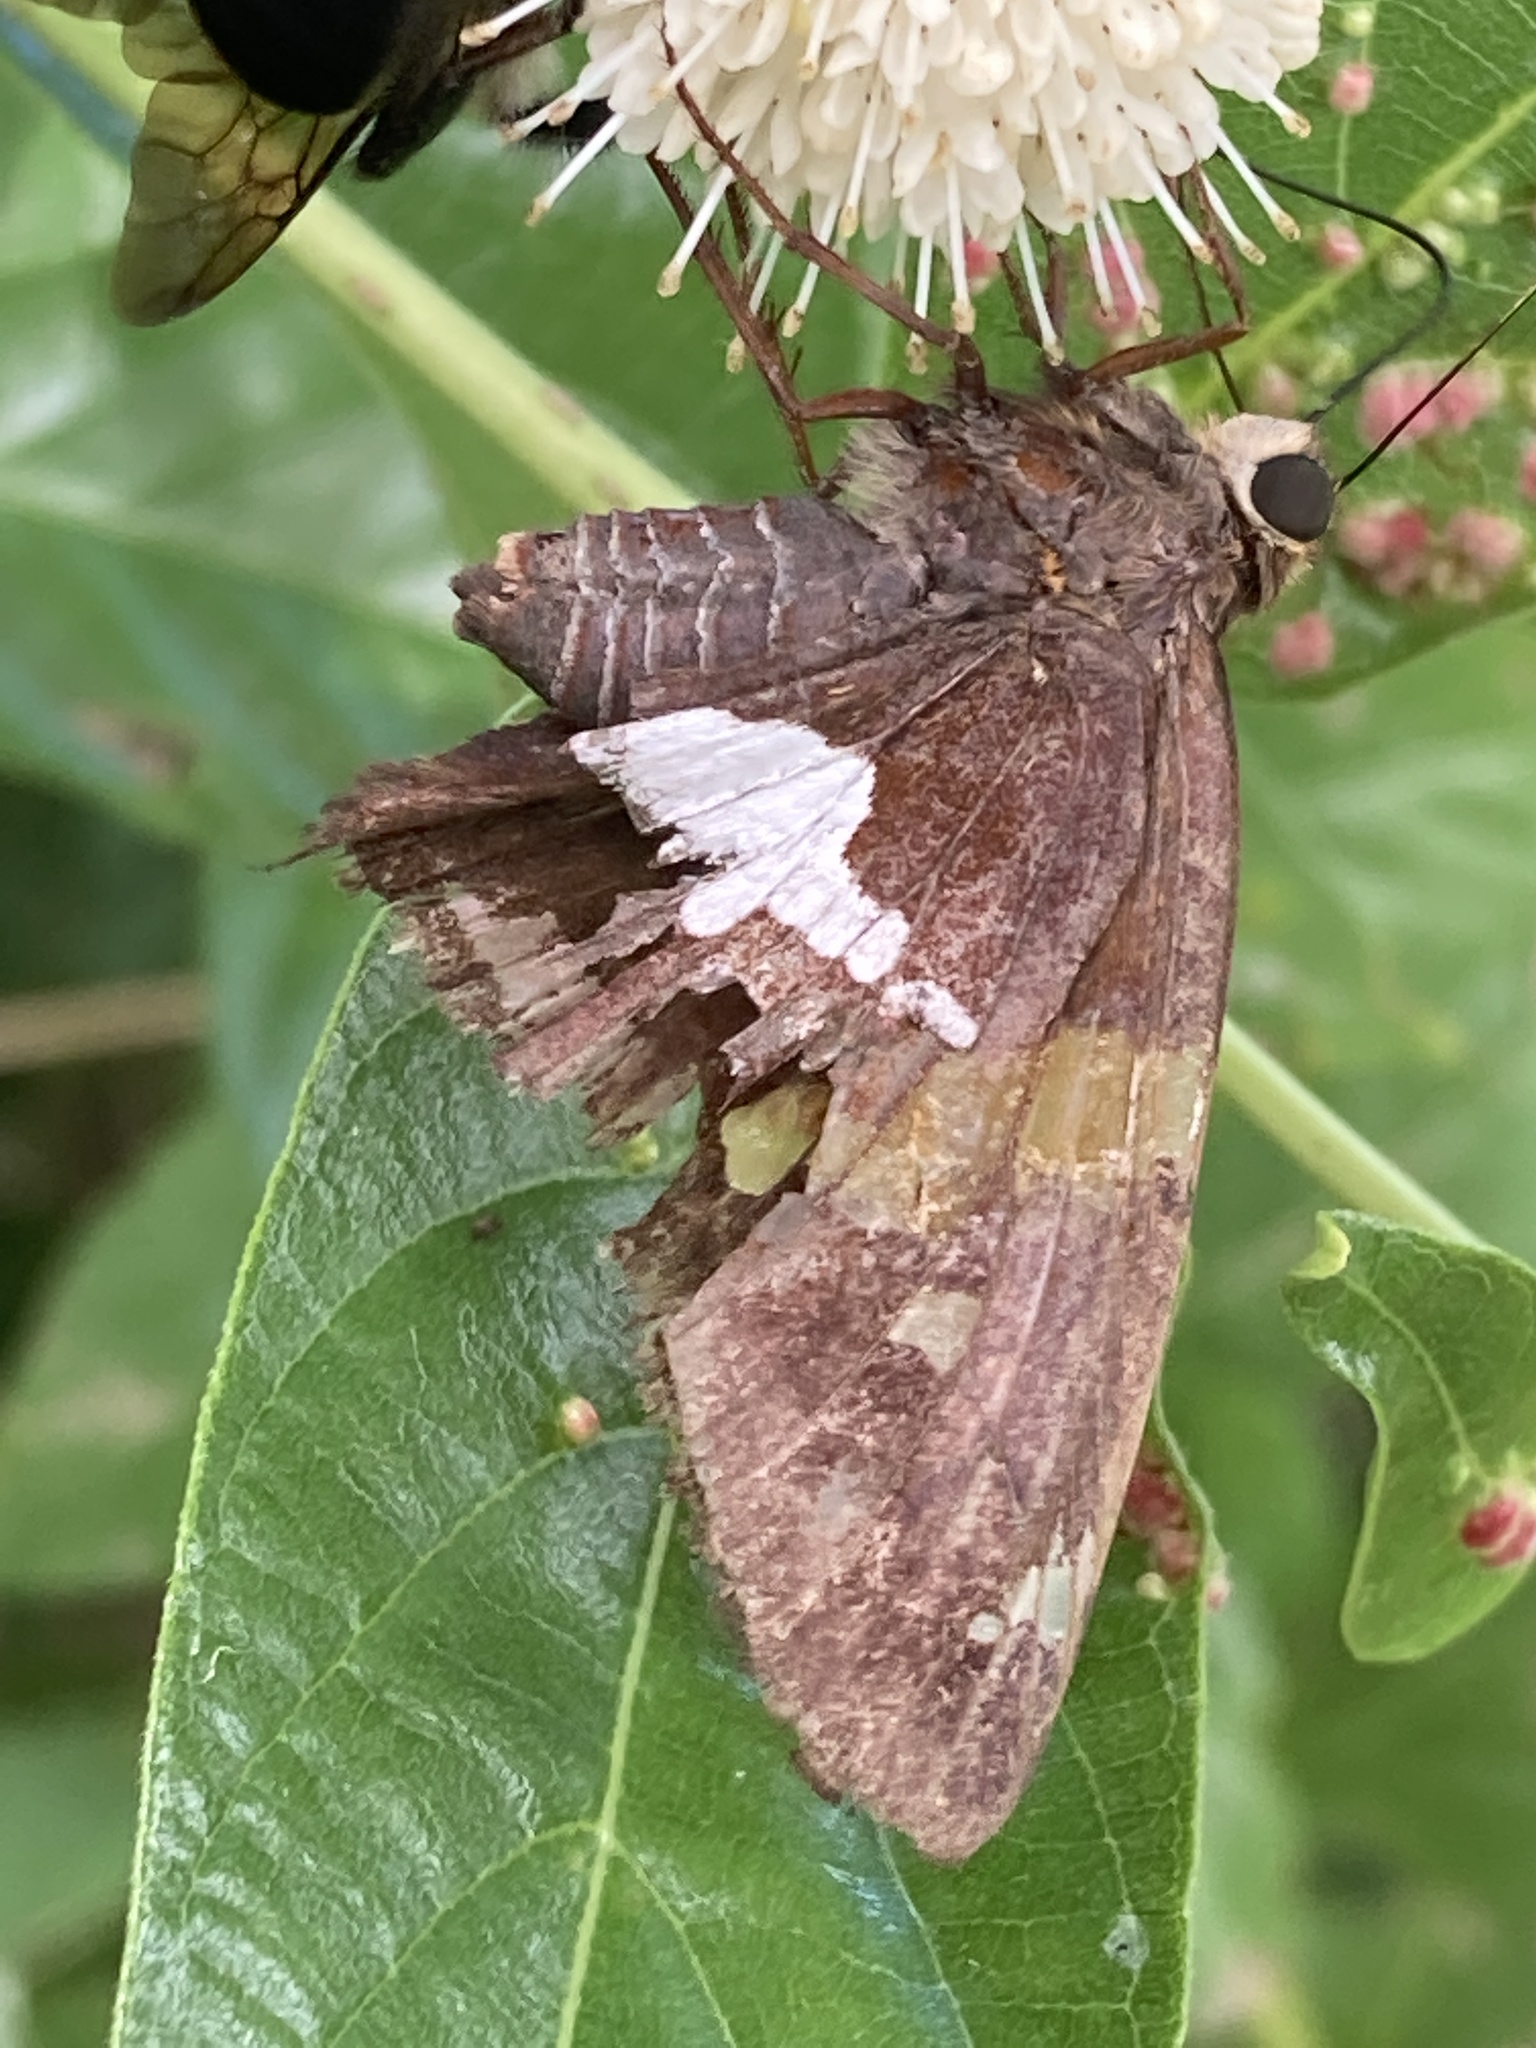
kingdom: Animalia
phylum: Arthropoda
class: Insecta
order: Lepidoptera
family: Hesperiidae
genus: Epargyreus
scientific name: Epargyreus clarus
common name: Silver-spotted skipper
